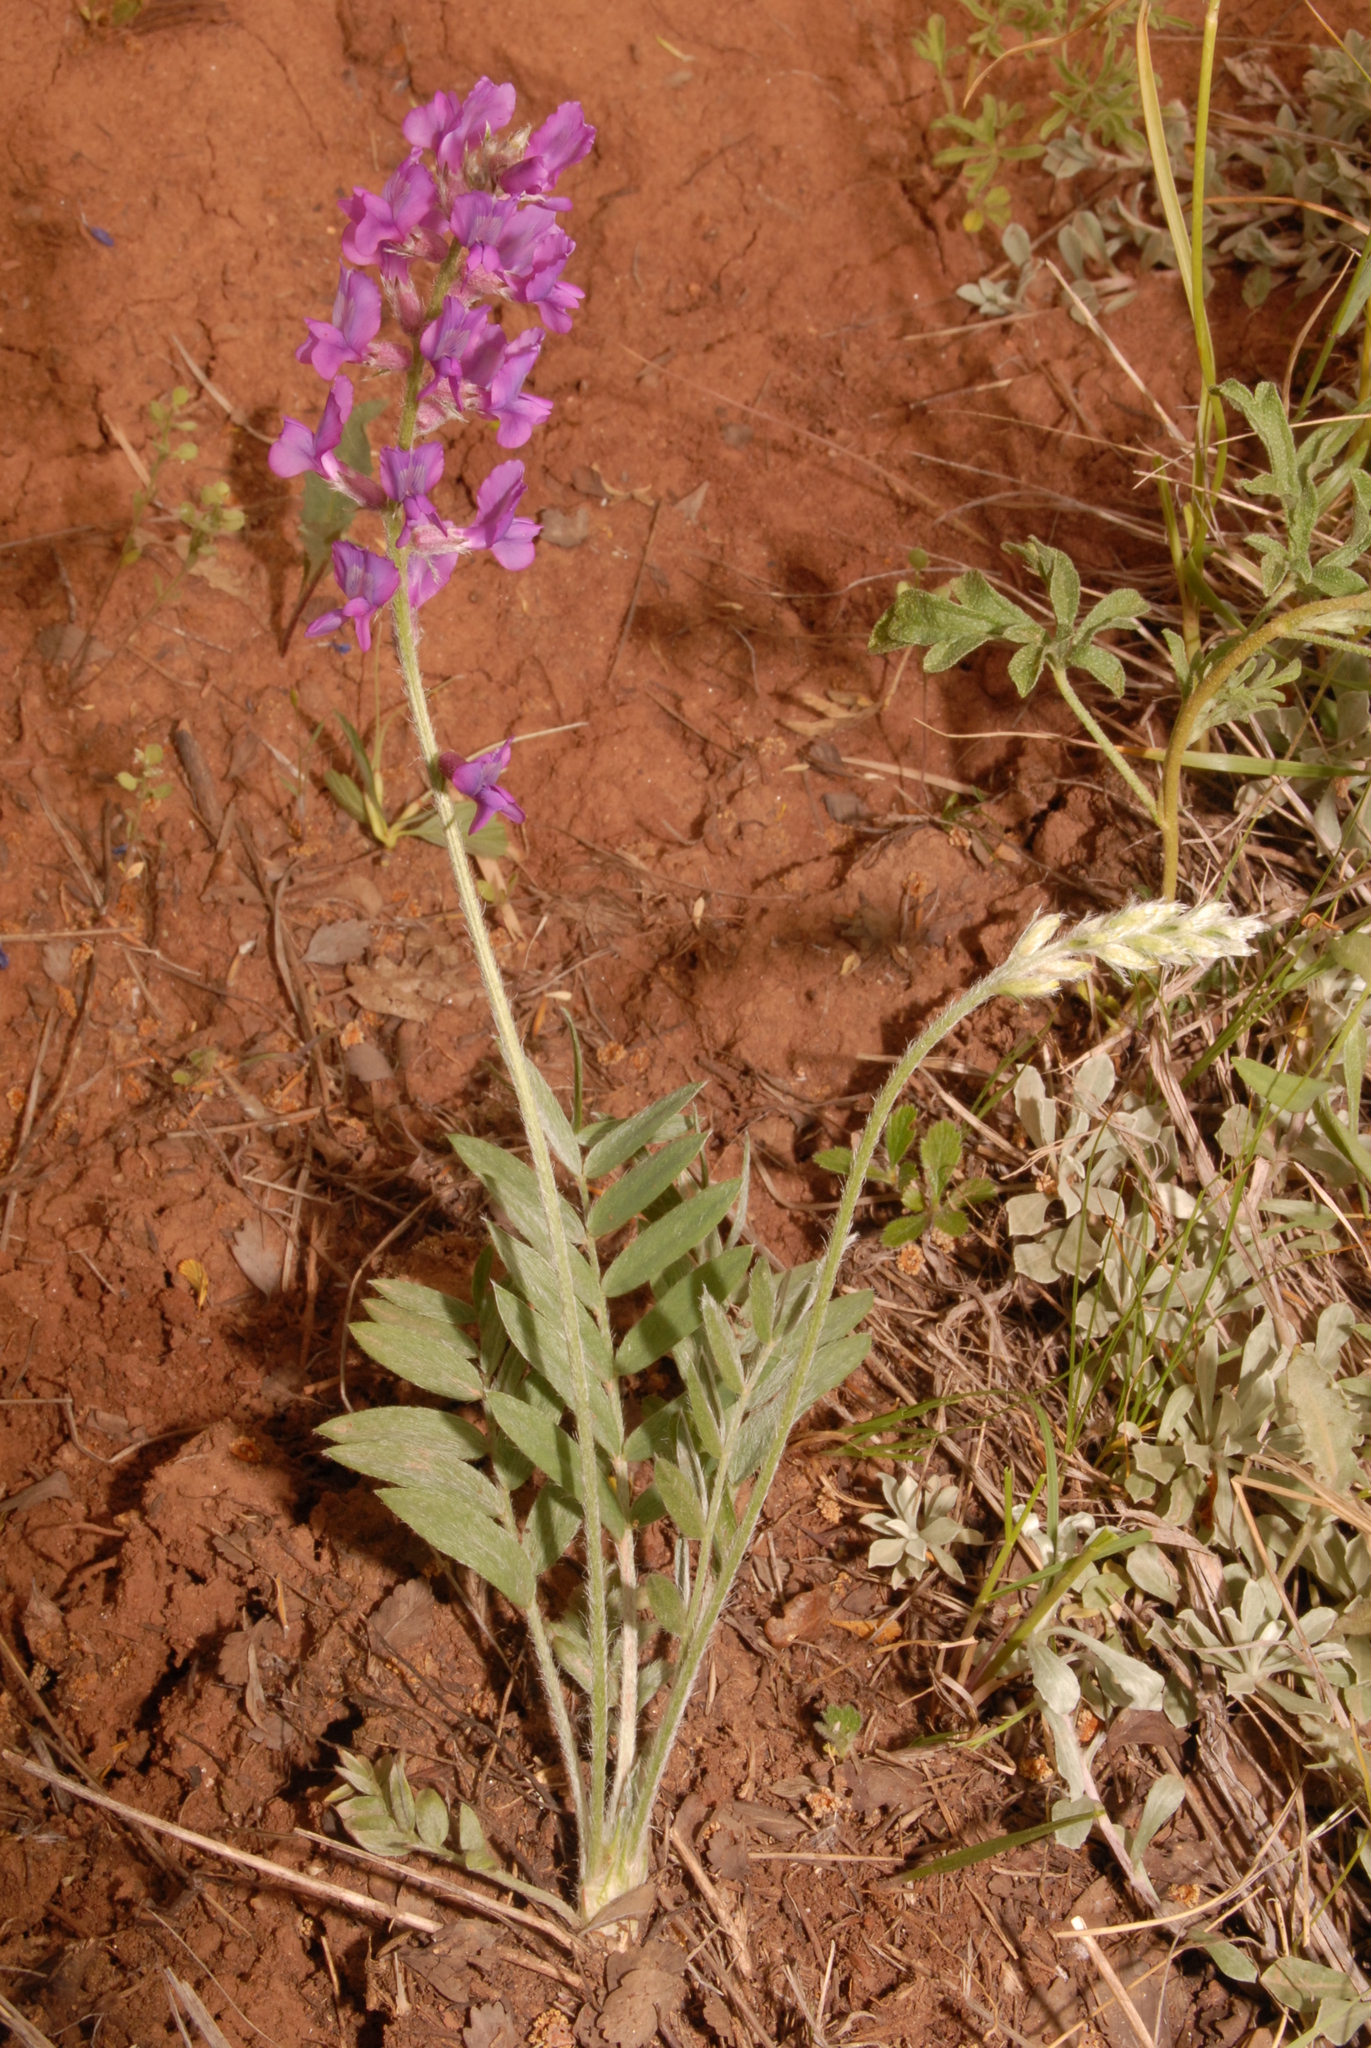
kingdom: Plantae
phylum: Tracheophyta
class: Magnoliopsida
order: Fabales
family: Fabaceae
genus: Oxytropis
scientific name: Oxytropis lambertii
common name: Purple locoweed
